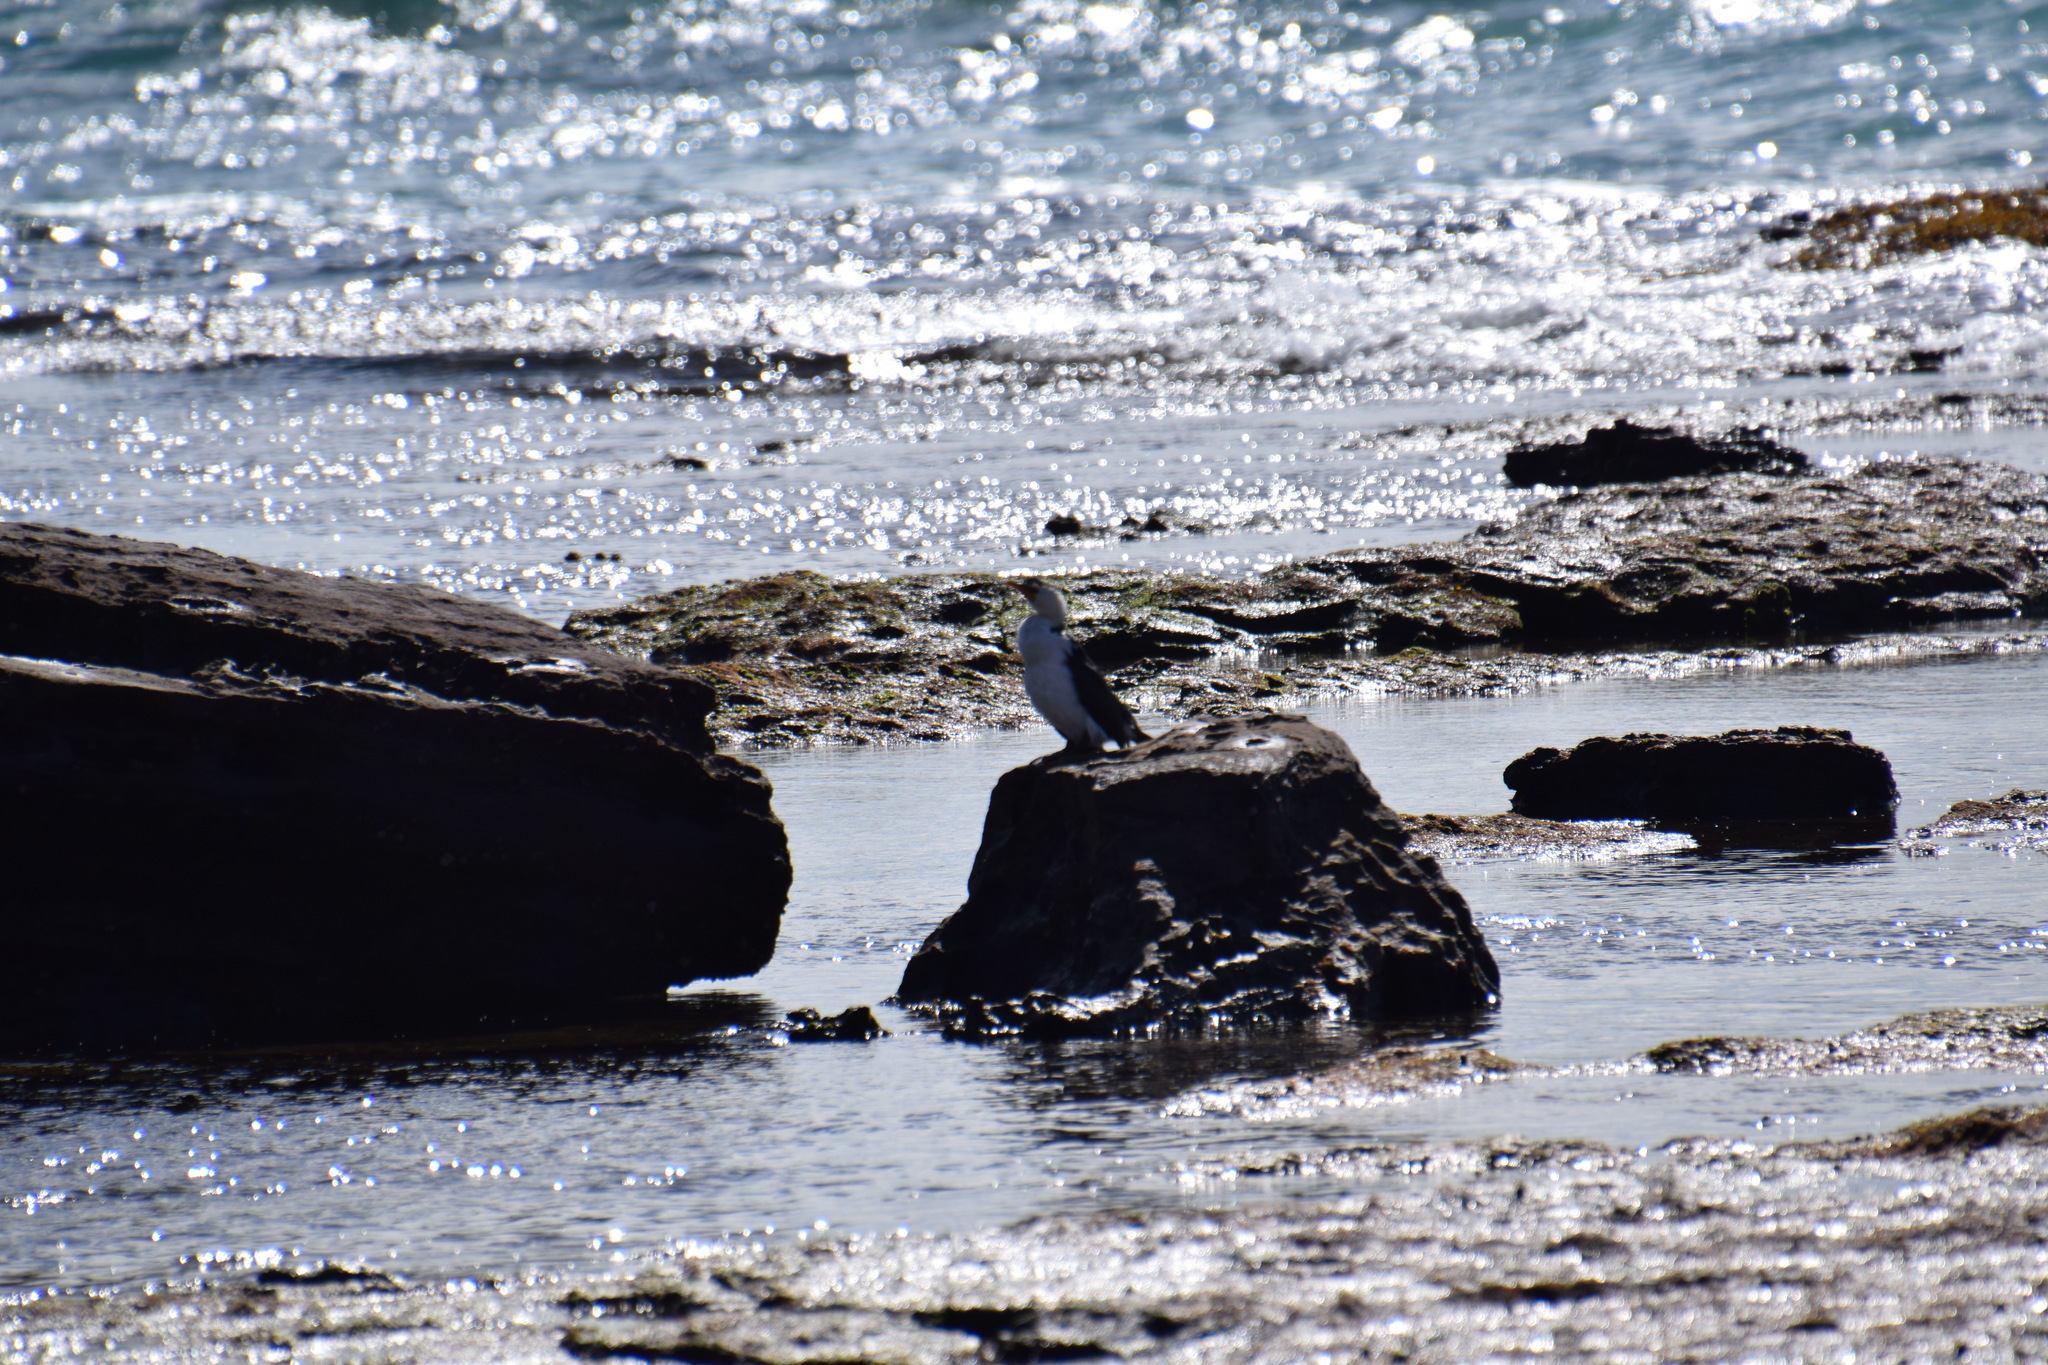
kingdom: Animalia
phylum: Chordata
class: Aves
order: Suliformes
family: Phalacrocoracidae
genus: Microcarbo
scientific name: Microcarbo melanoleucos
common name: Little pied cormorant
